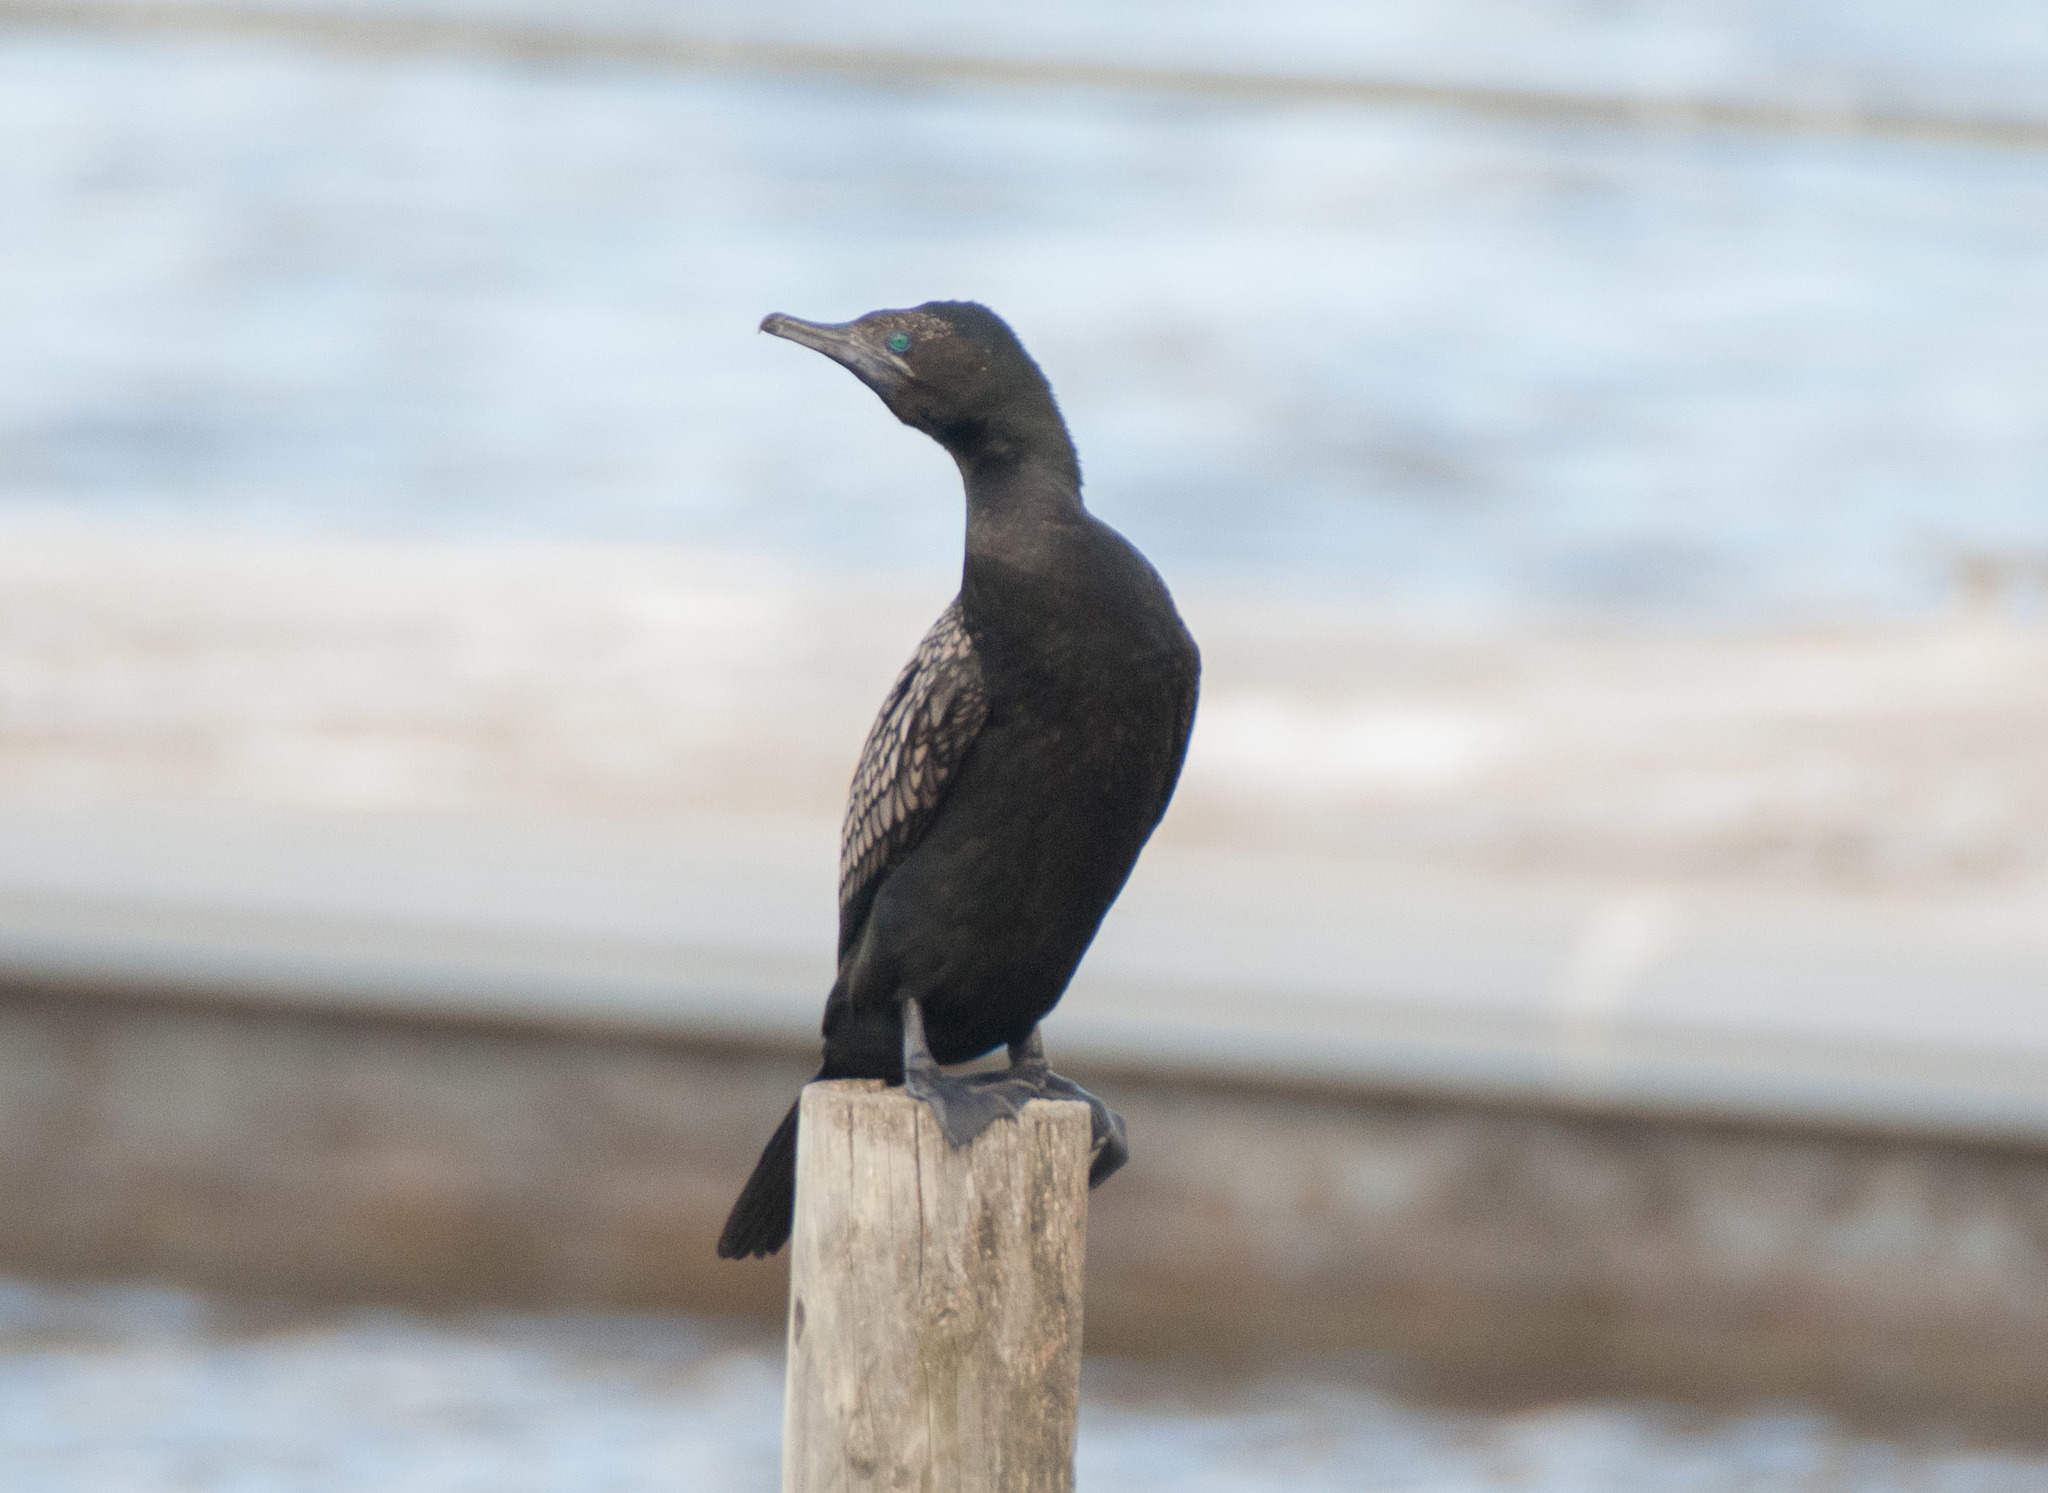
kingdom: Animalia
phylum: Chordata
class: Aves
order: Suliformes
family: Phalacrocoracidae
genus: Phalacrocorax
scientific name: Phalacrocorax sulcirostris
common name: Little black cormorant
